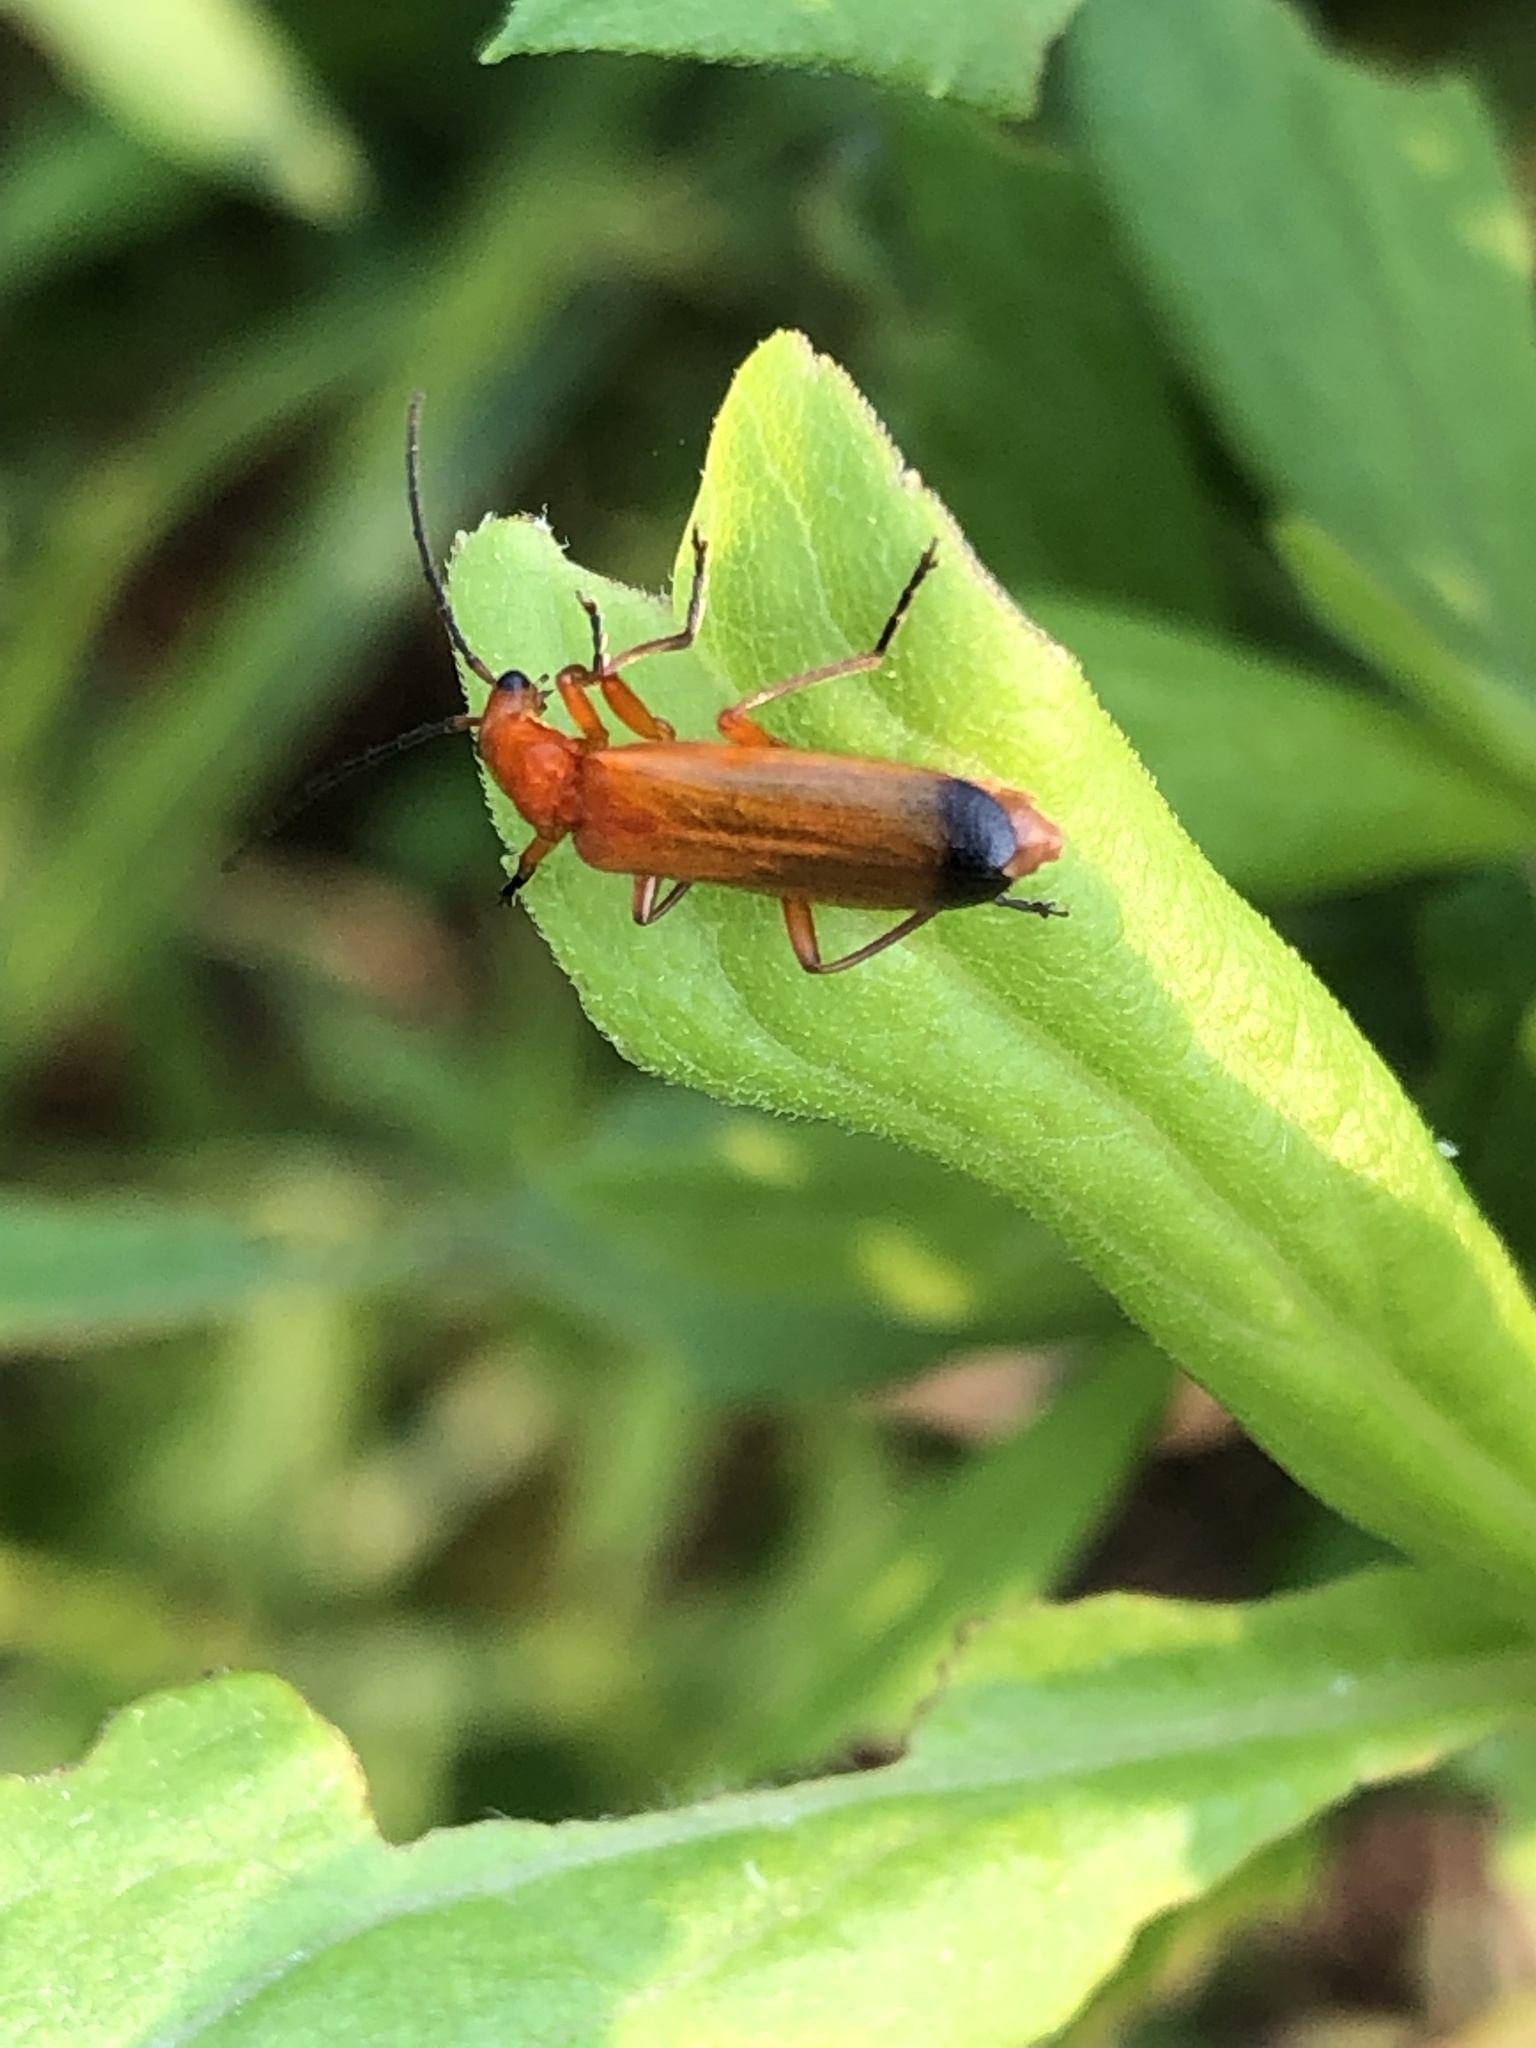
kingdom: Animalia
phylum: Arthropoda
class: Insecta
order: Coleoptera
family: Cantharidae
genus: Rhagonycha
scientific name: Rhagonycha fulva
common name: Common red soldier beetle
